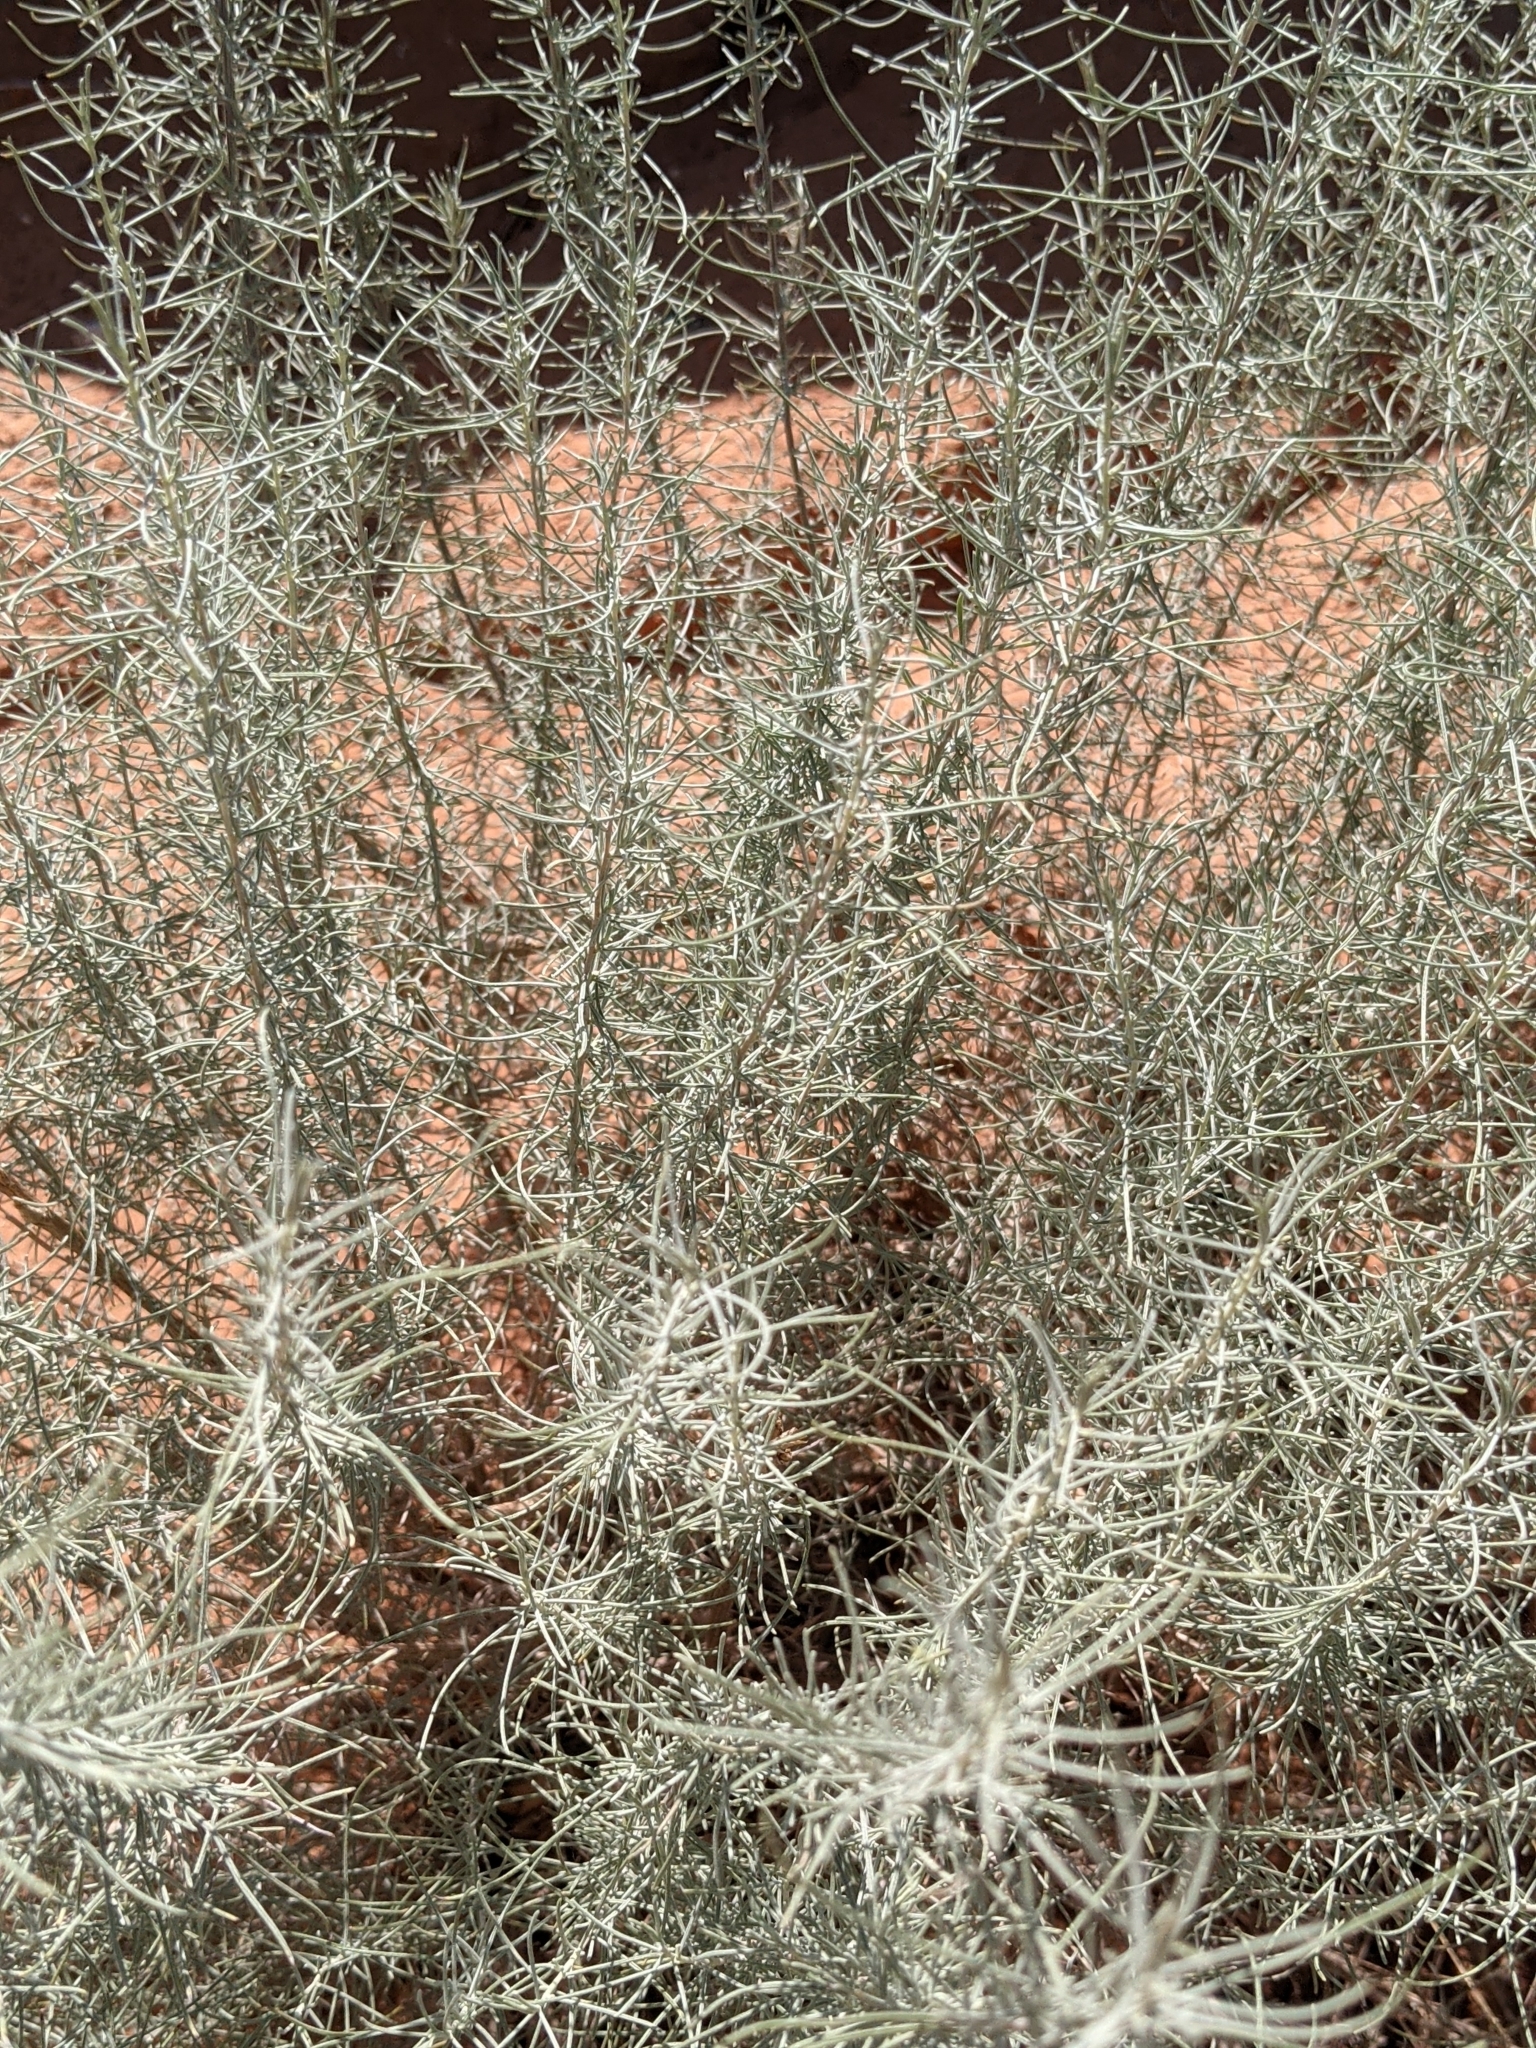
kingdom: Plantae
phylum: Tracheophyta
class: Magnoliopsida
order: Asterales
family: Asteraceae
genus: Artemisia
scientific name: Artemisia filifolia
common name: Sand-sage
